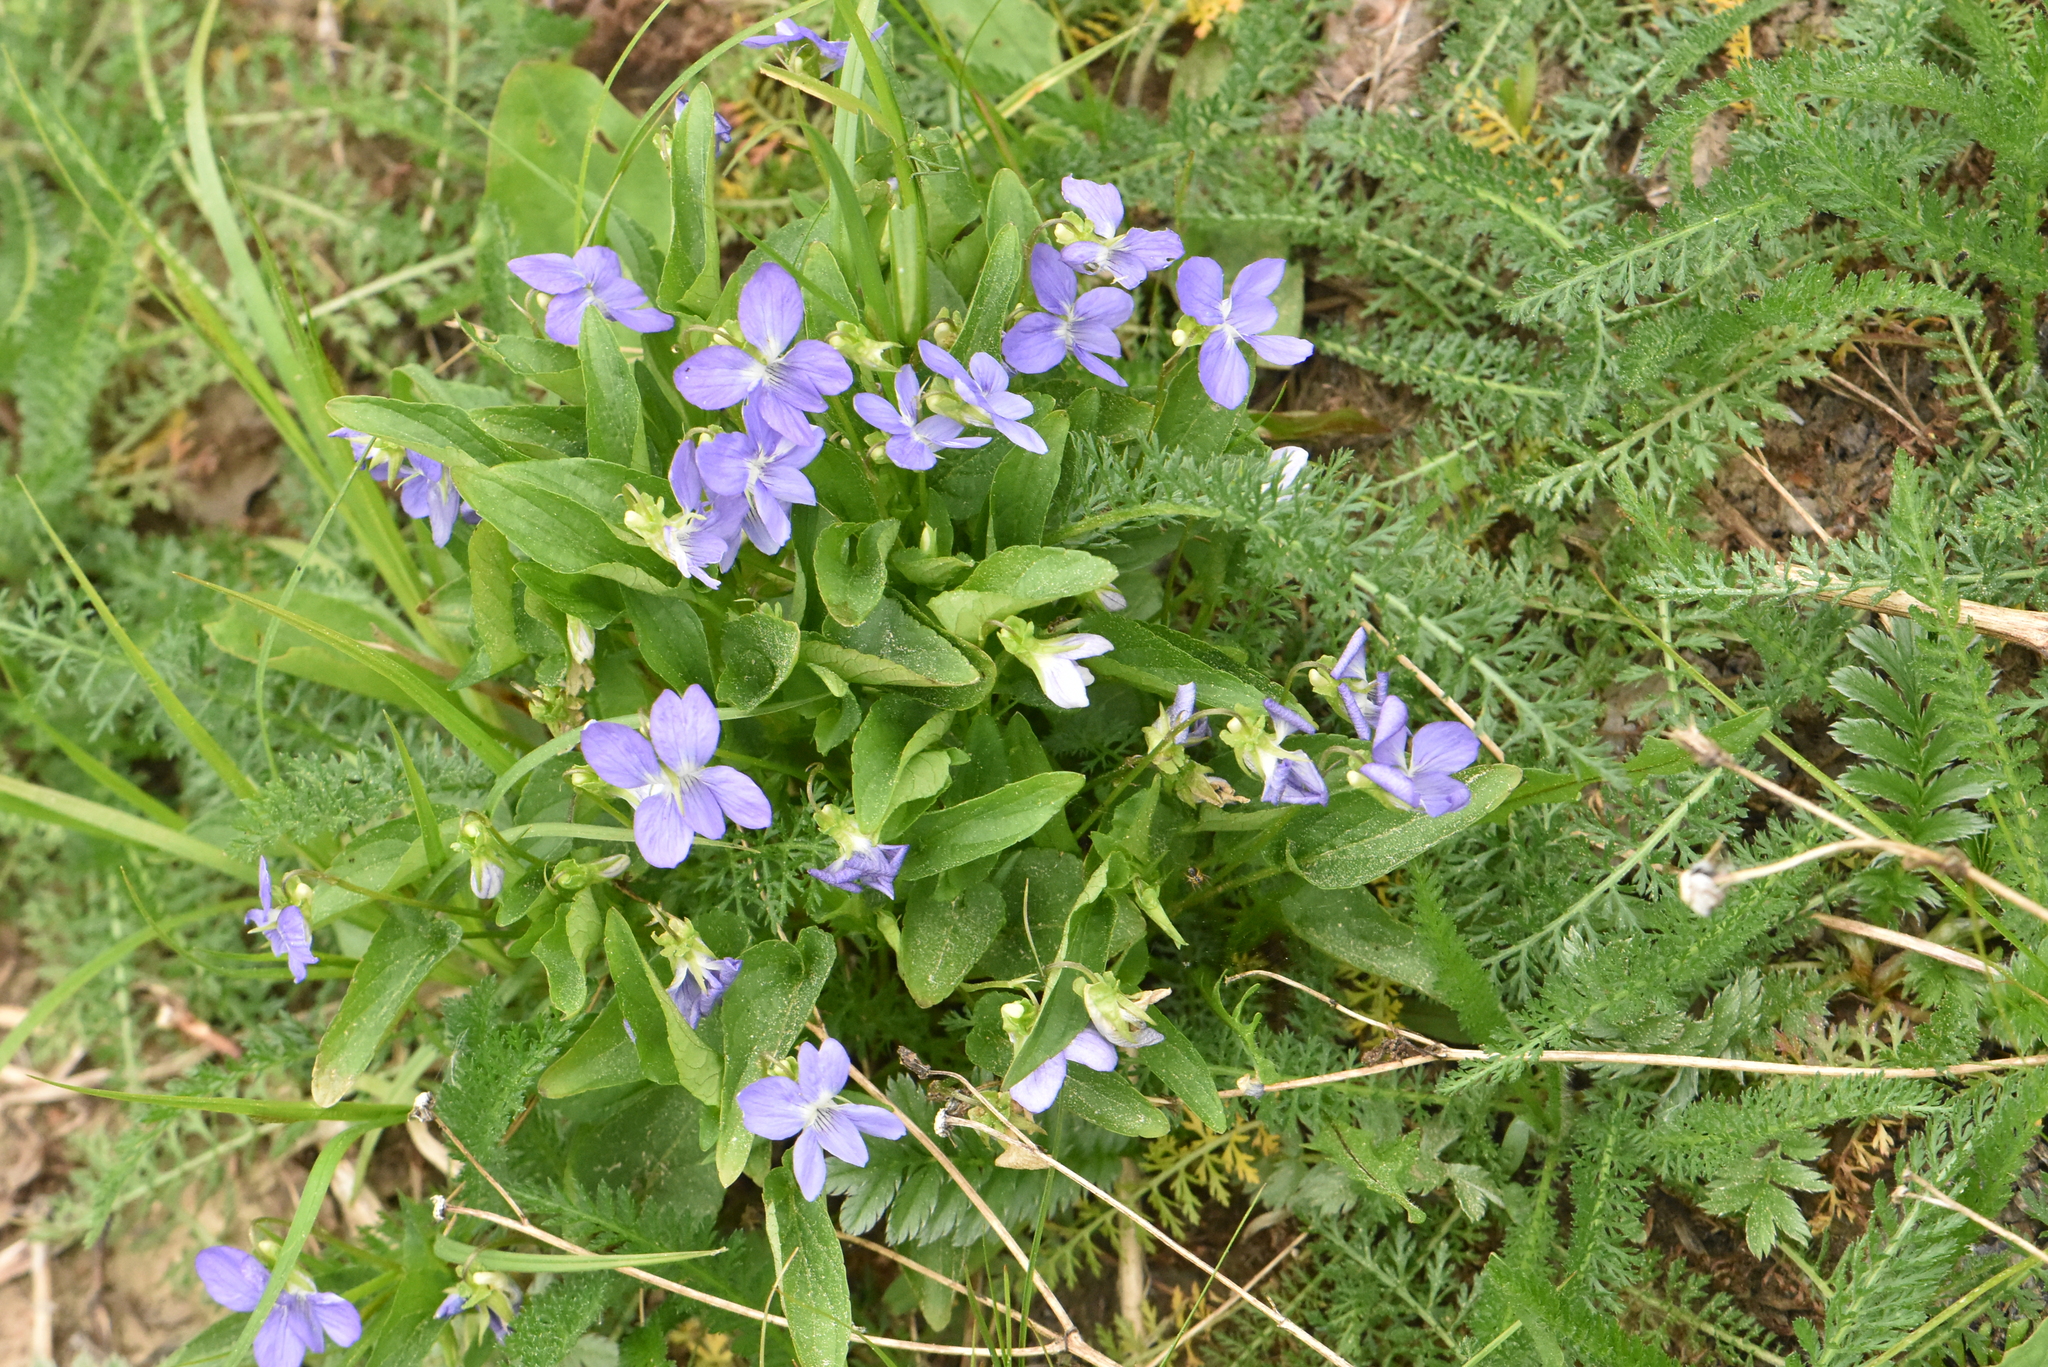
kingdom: Plantae
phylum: Tracheophyta
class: Magnoliopsida
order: Malpighiales
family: Violaceae
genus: Viola
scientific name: Viola canina
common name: Heath dog-violet
